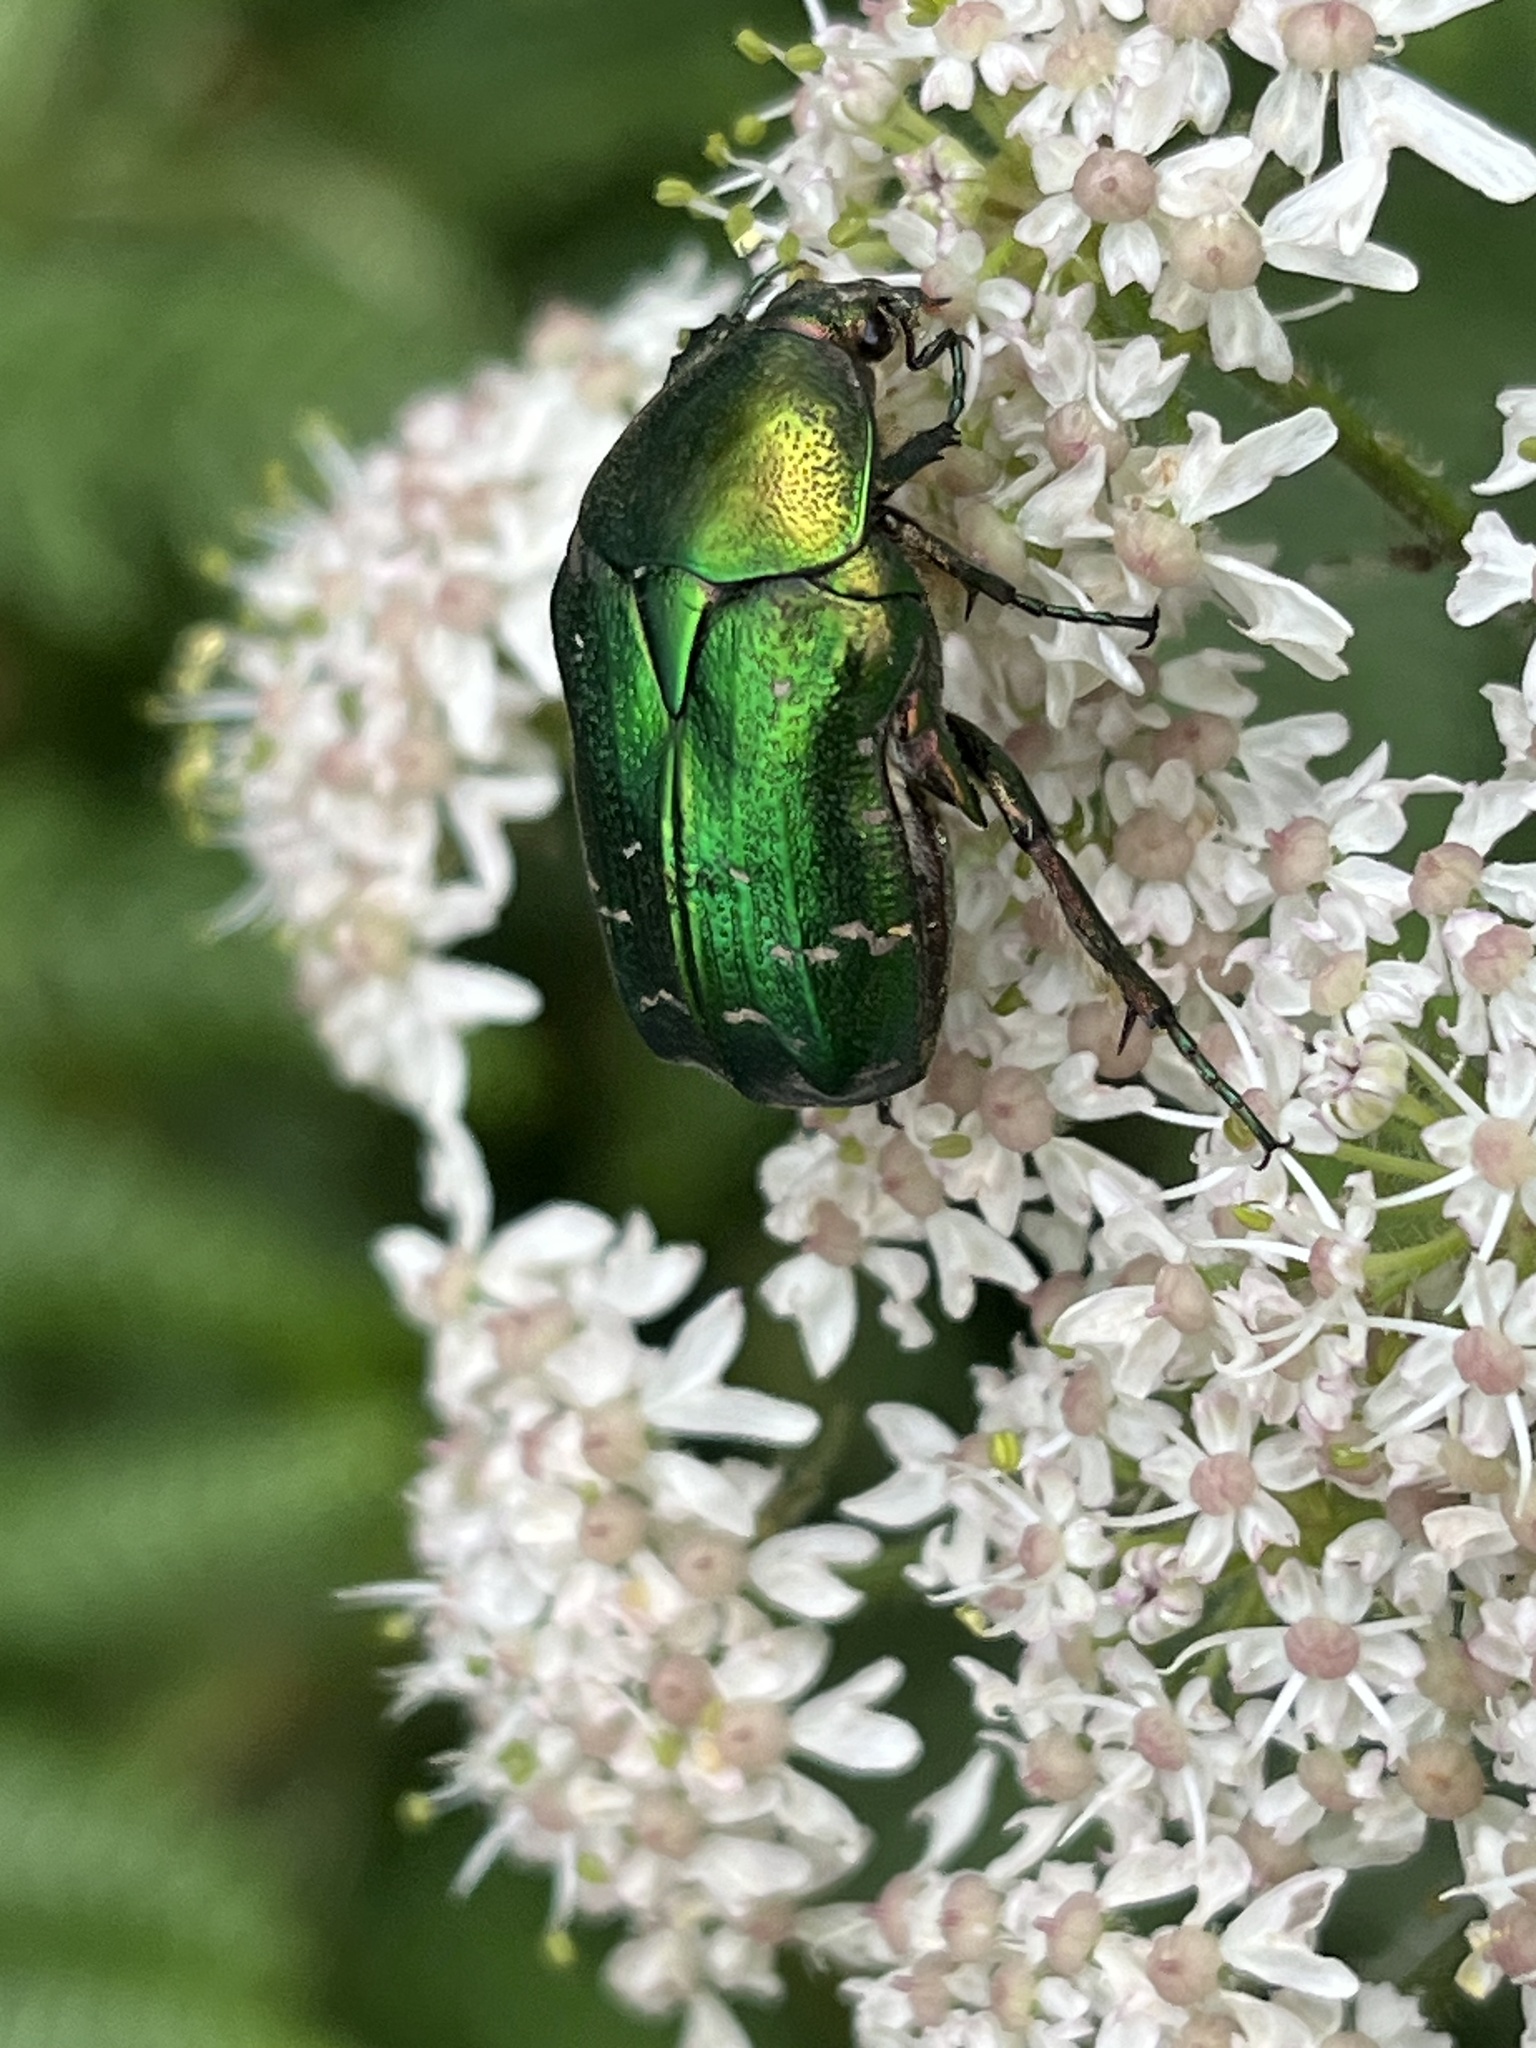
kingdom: Animalia
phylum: Arthropoda
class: Insecta
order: Coleoptera
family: Scarabaeidae
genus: Cetonia
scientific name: Cetonia aurata
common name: Rose chafer
